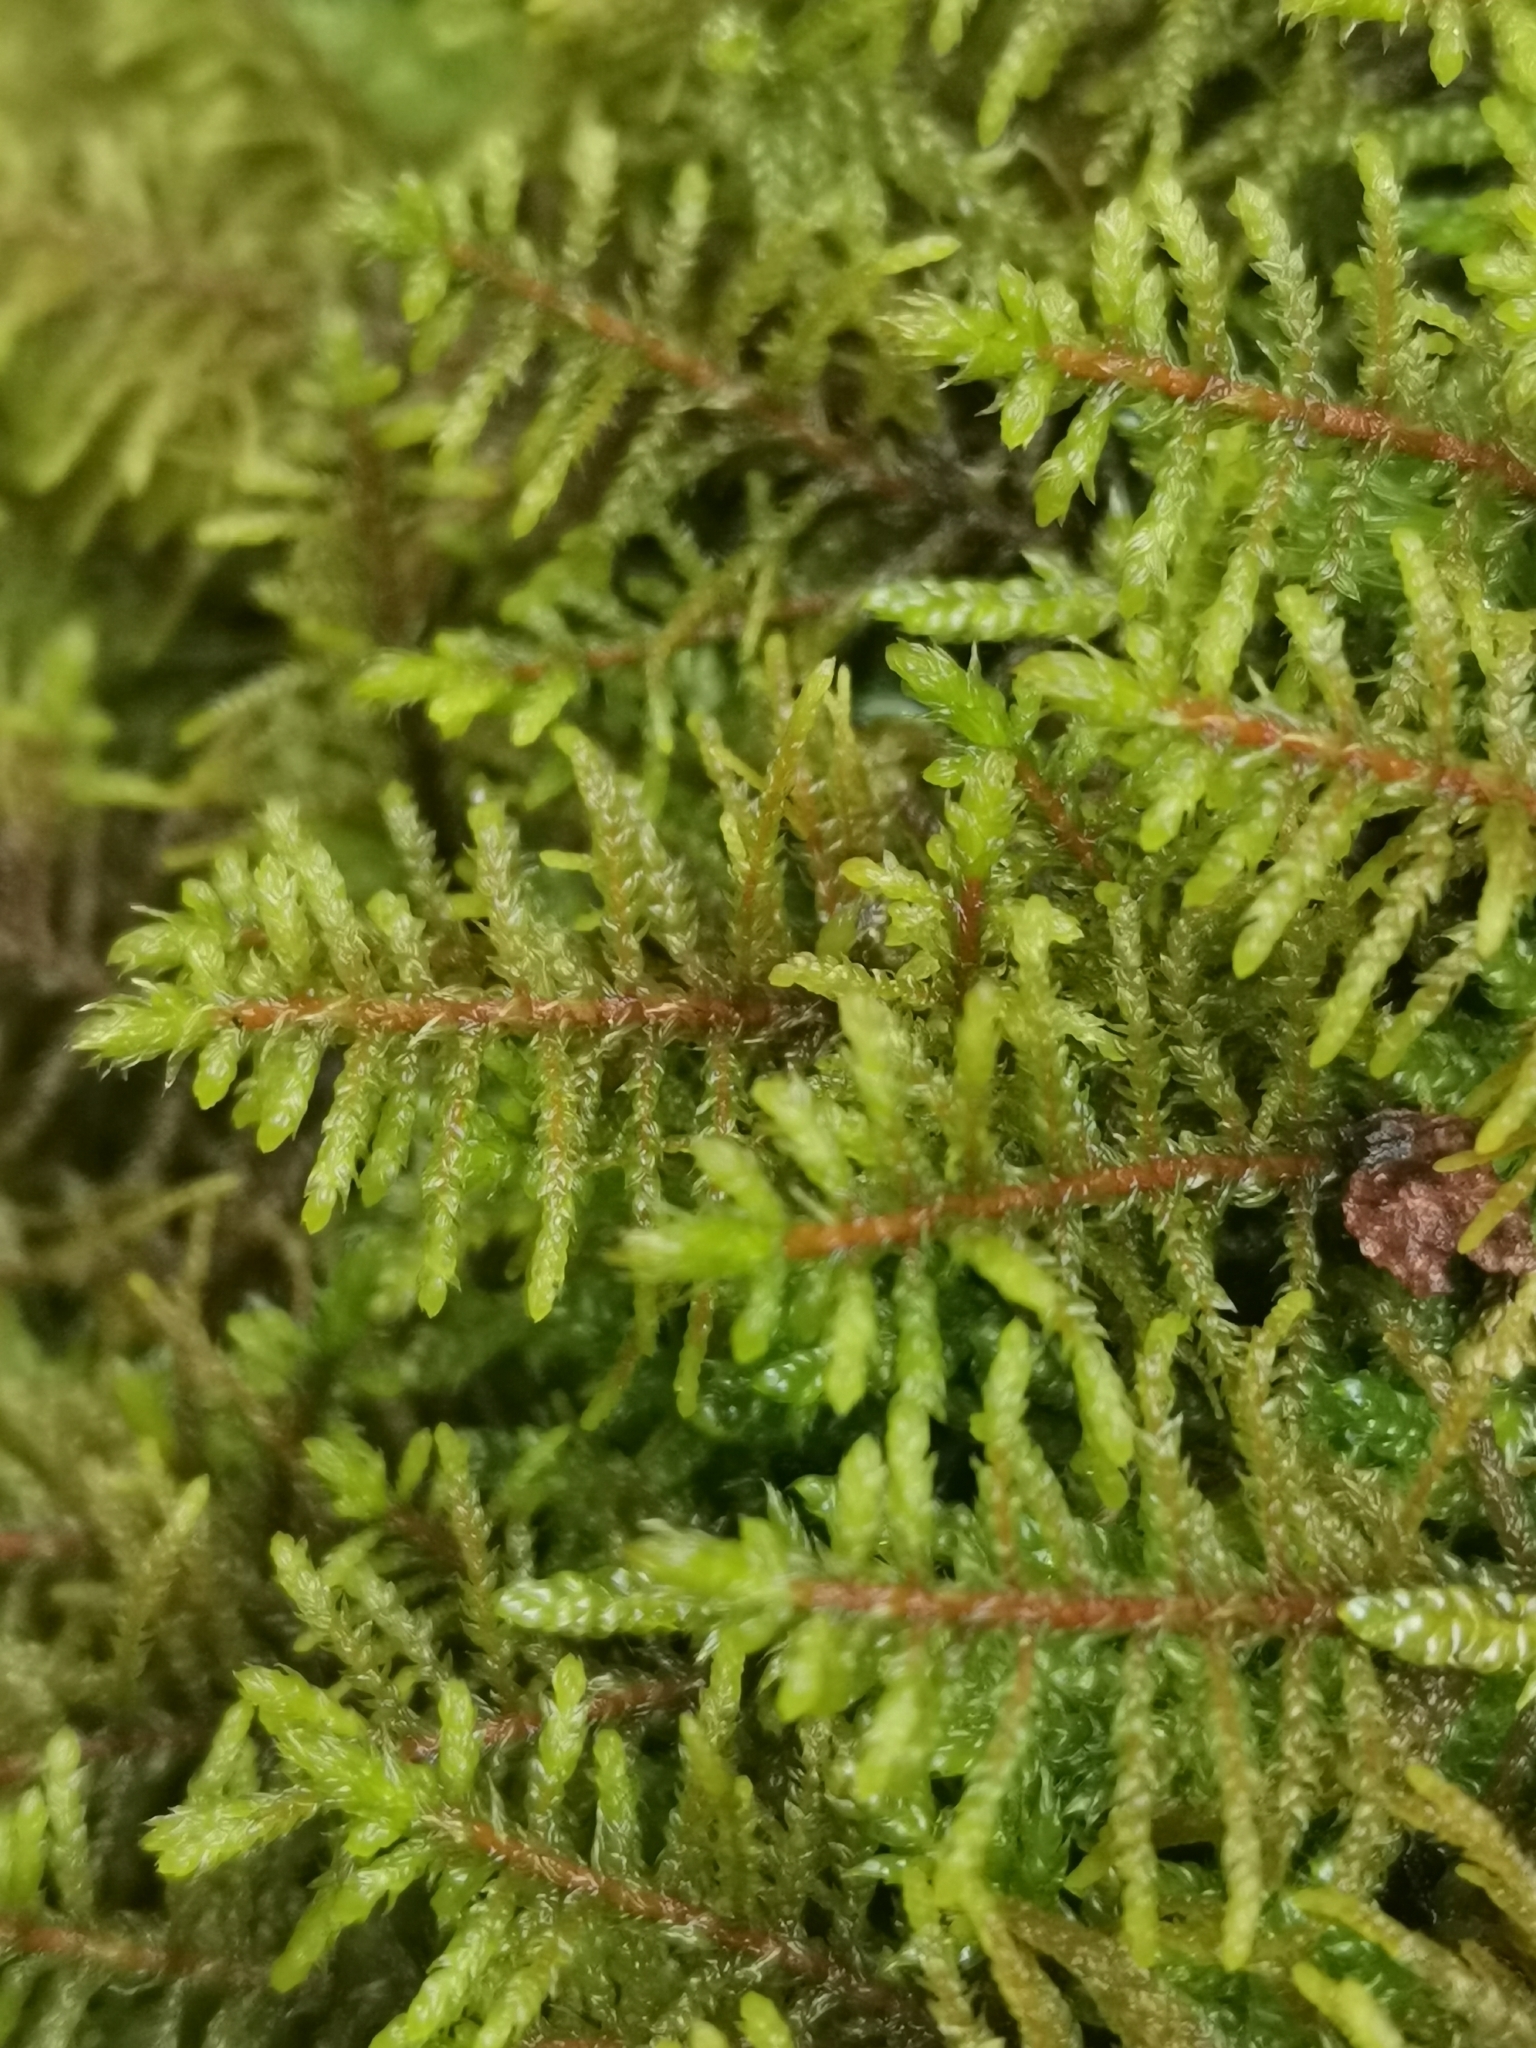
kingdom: Plantae
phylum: Bryophyta
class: Bryopsida
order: Hypnales
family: Hylocomiaceae
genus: Pleurozium
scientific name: Pleurozium schreberi
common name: Red-stemmed feather moss
